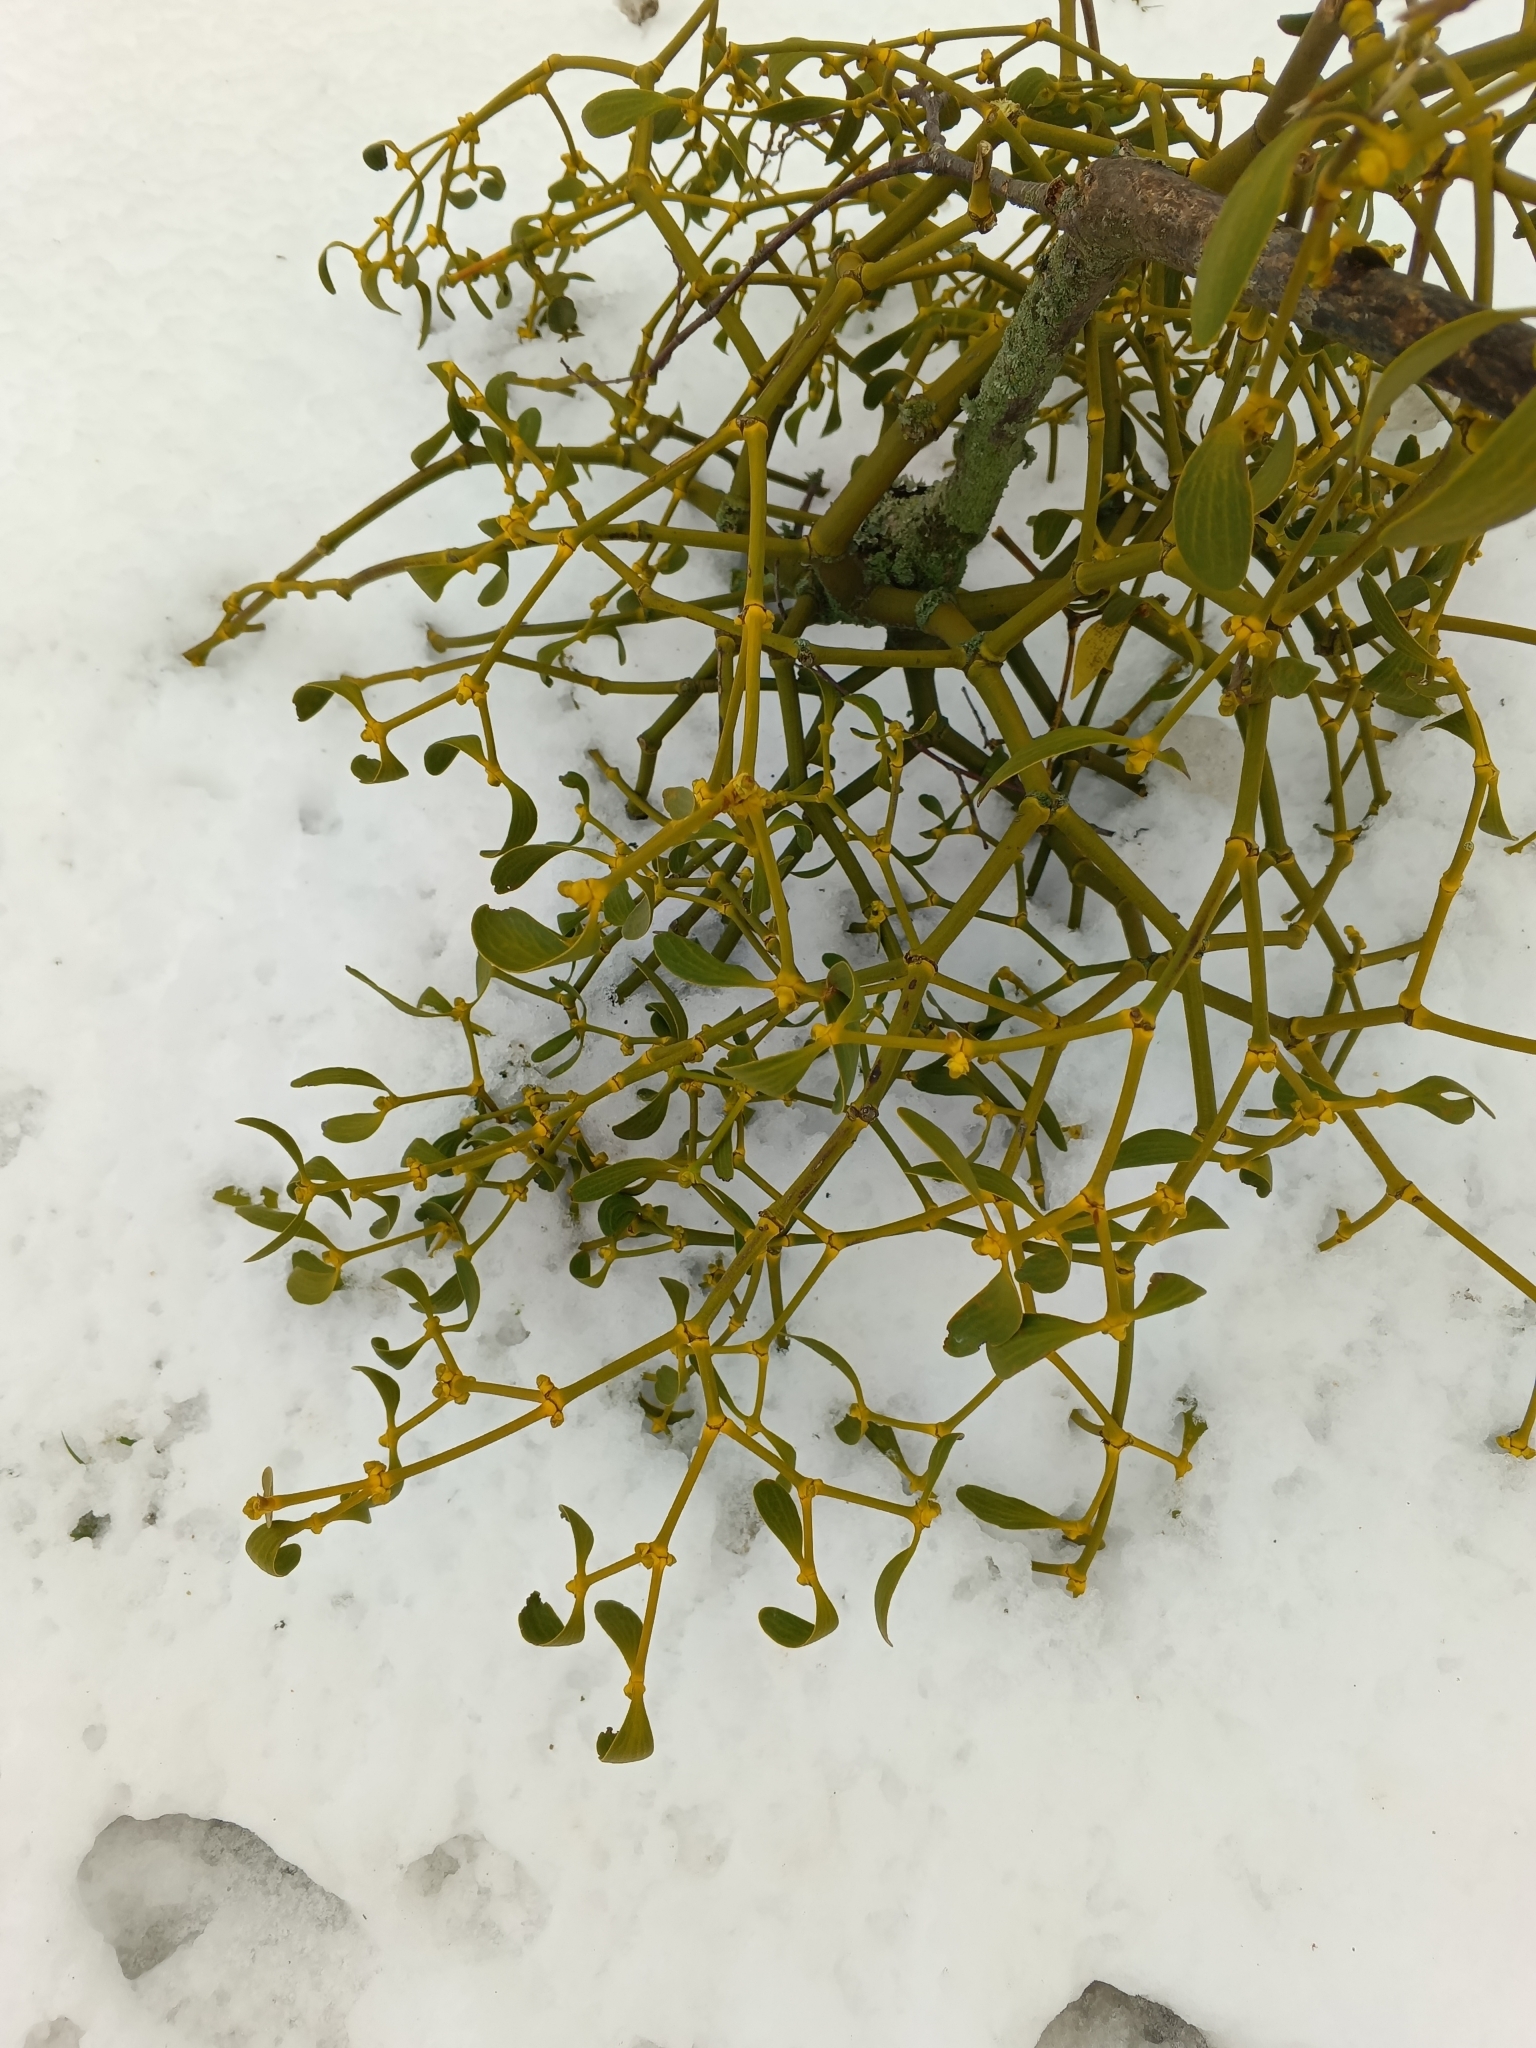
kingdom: Plantae
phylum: Tracheophyta
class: Magnoliopsida
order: Santalales
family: Viscaceae
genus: Viscum
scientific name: Viscum album
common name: Mistletoe
